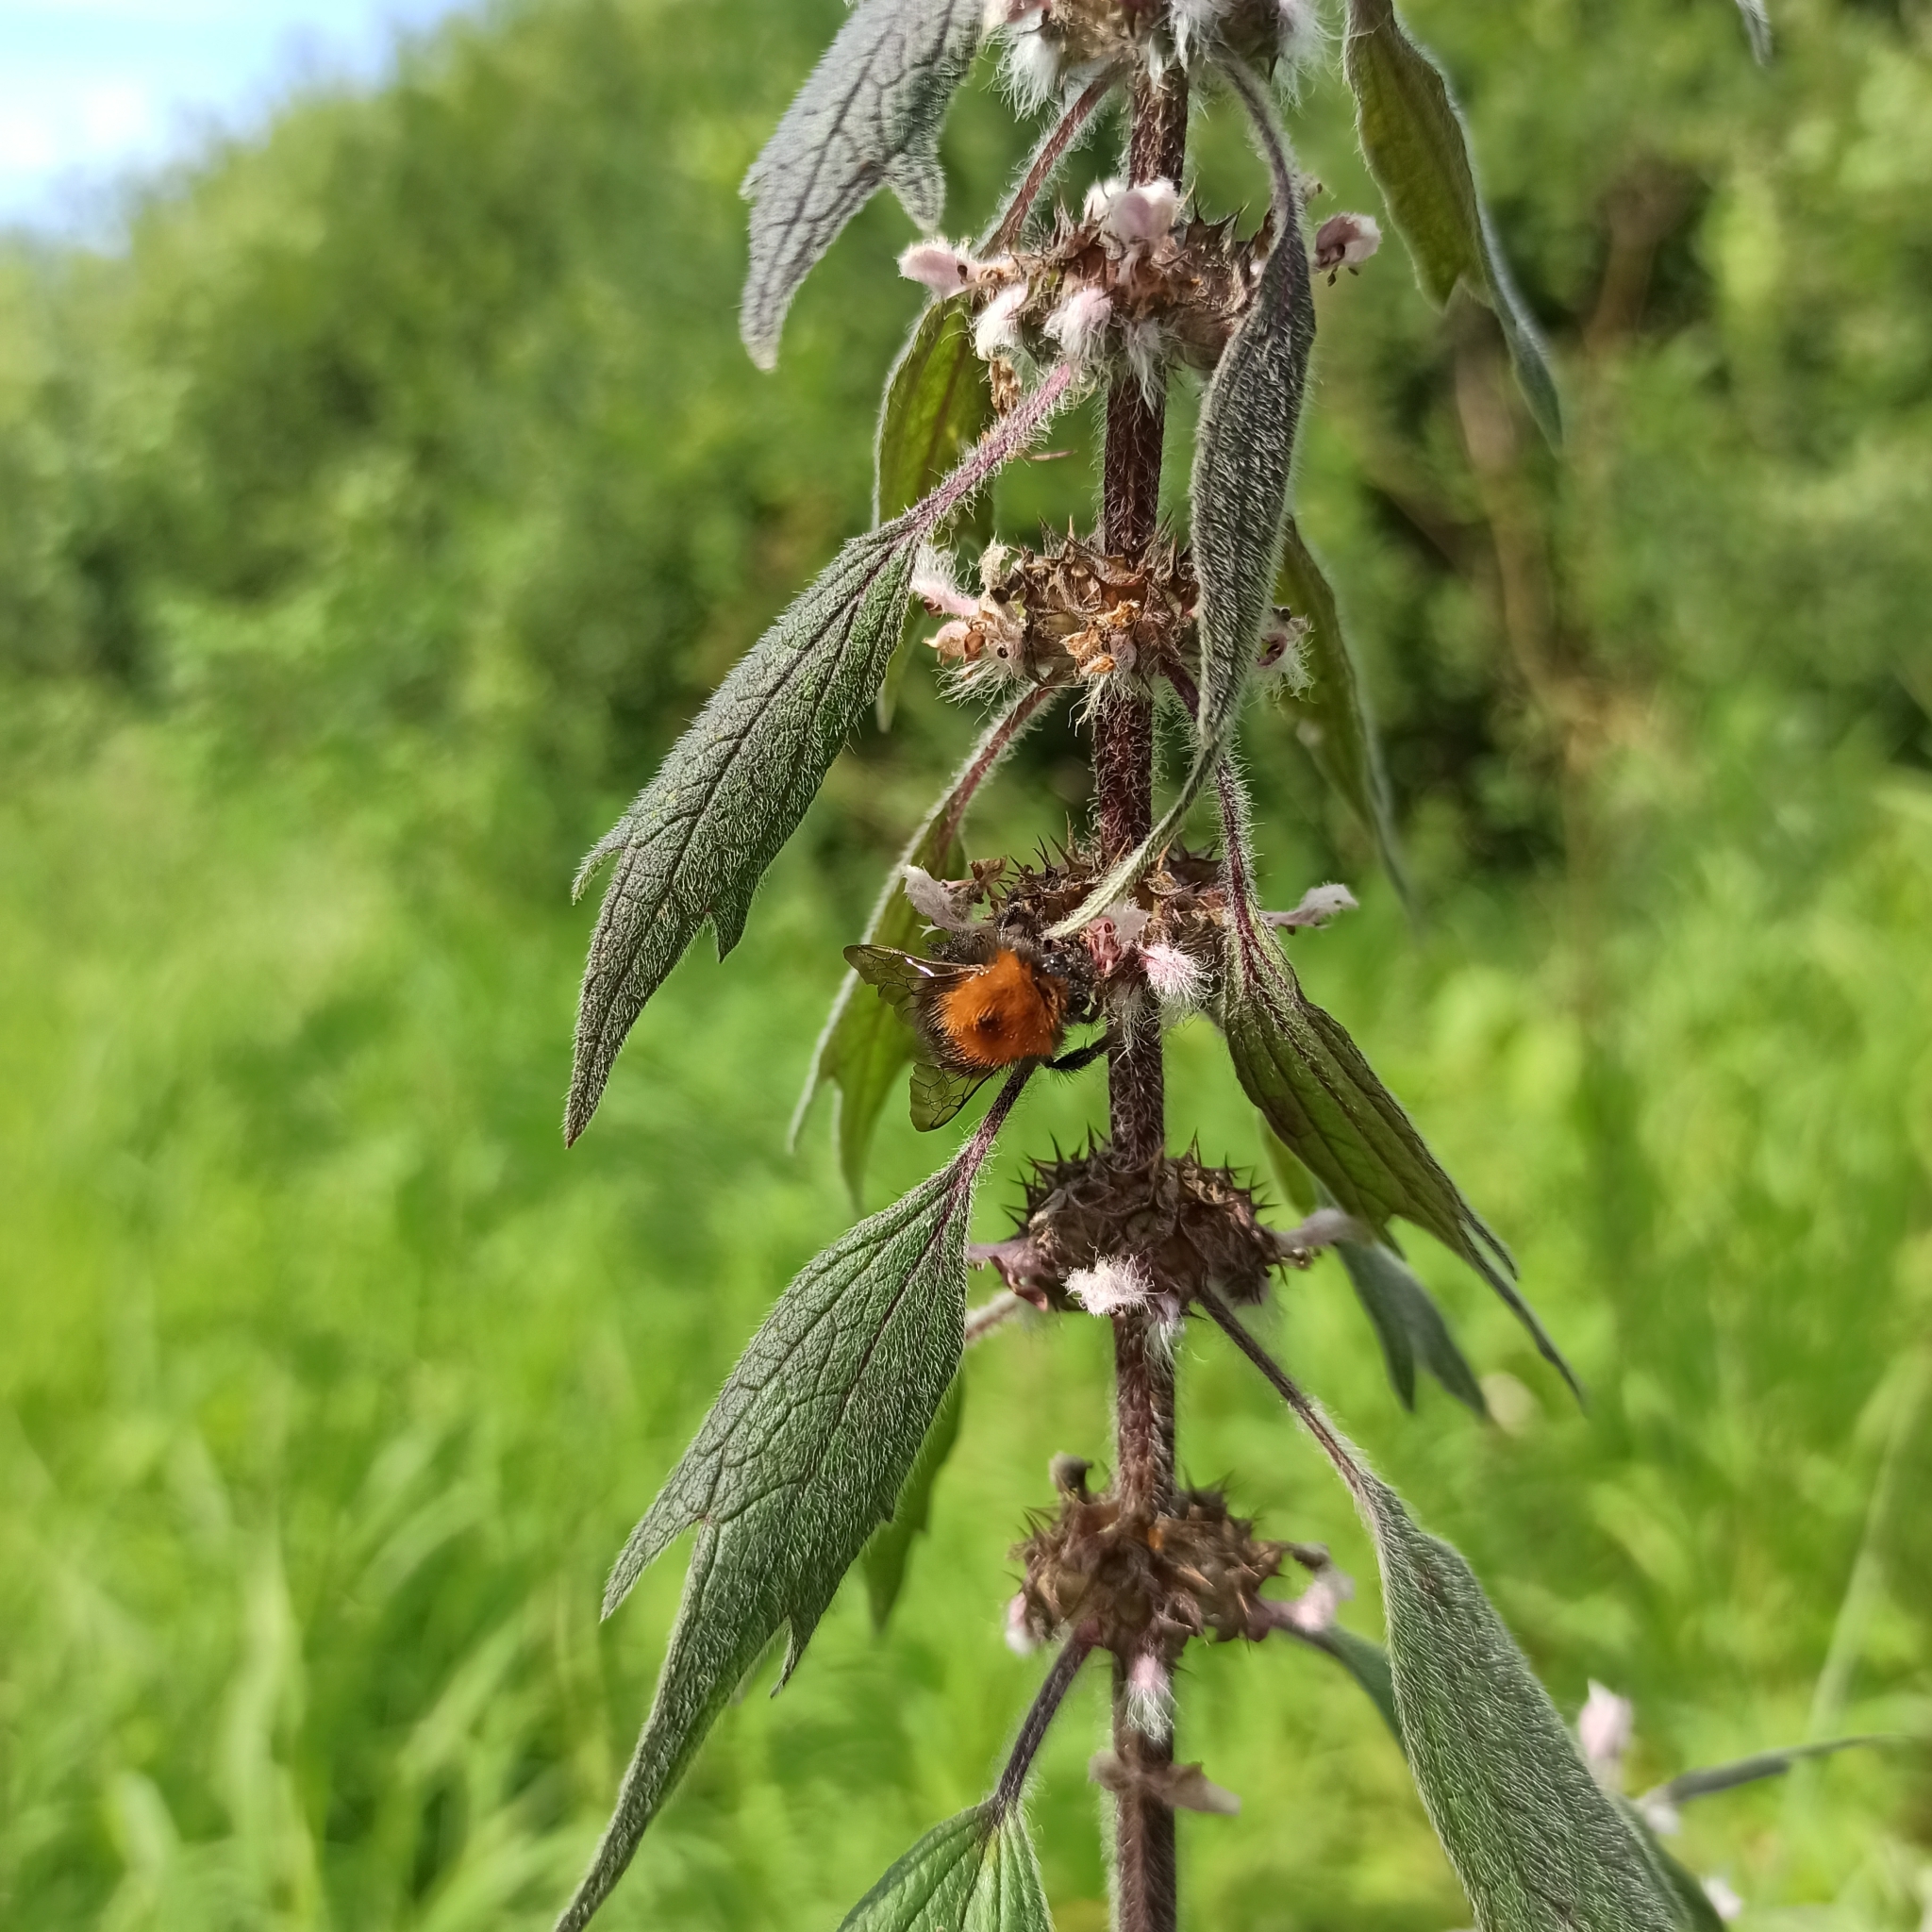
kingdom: Plantae
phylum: Tracheophyta
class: Magnoliopsida
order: Lamiales
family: Lamiaceae
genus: Leonurus
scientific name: Leonurus quinquelobatus
